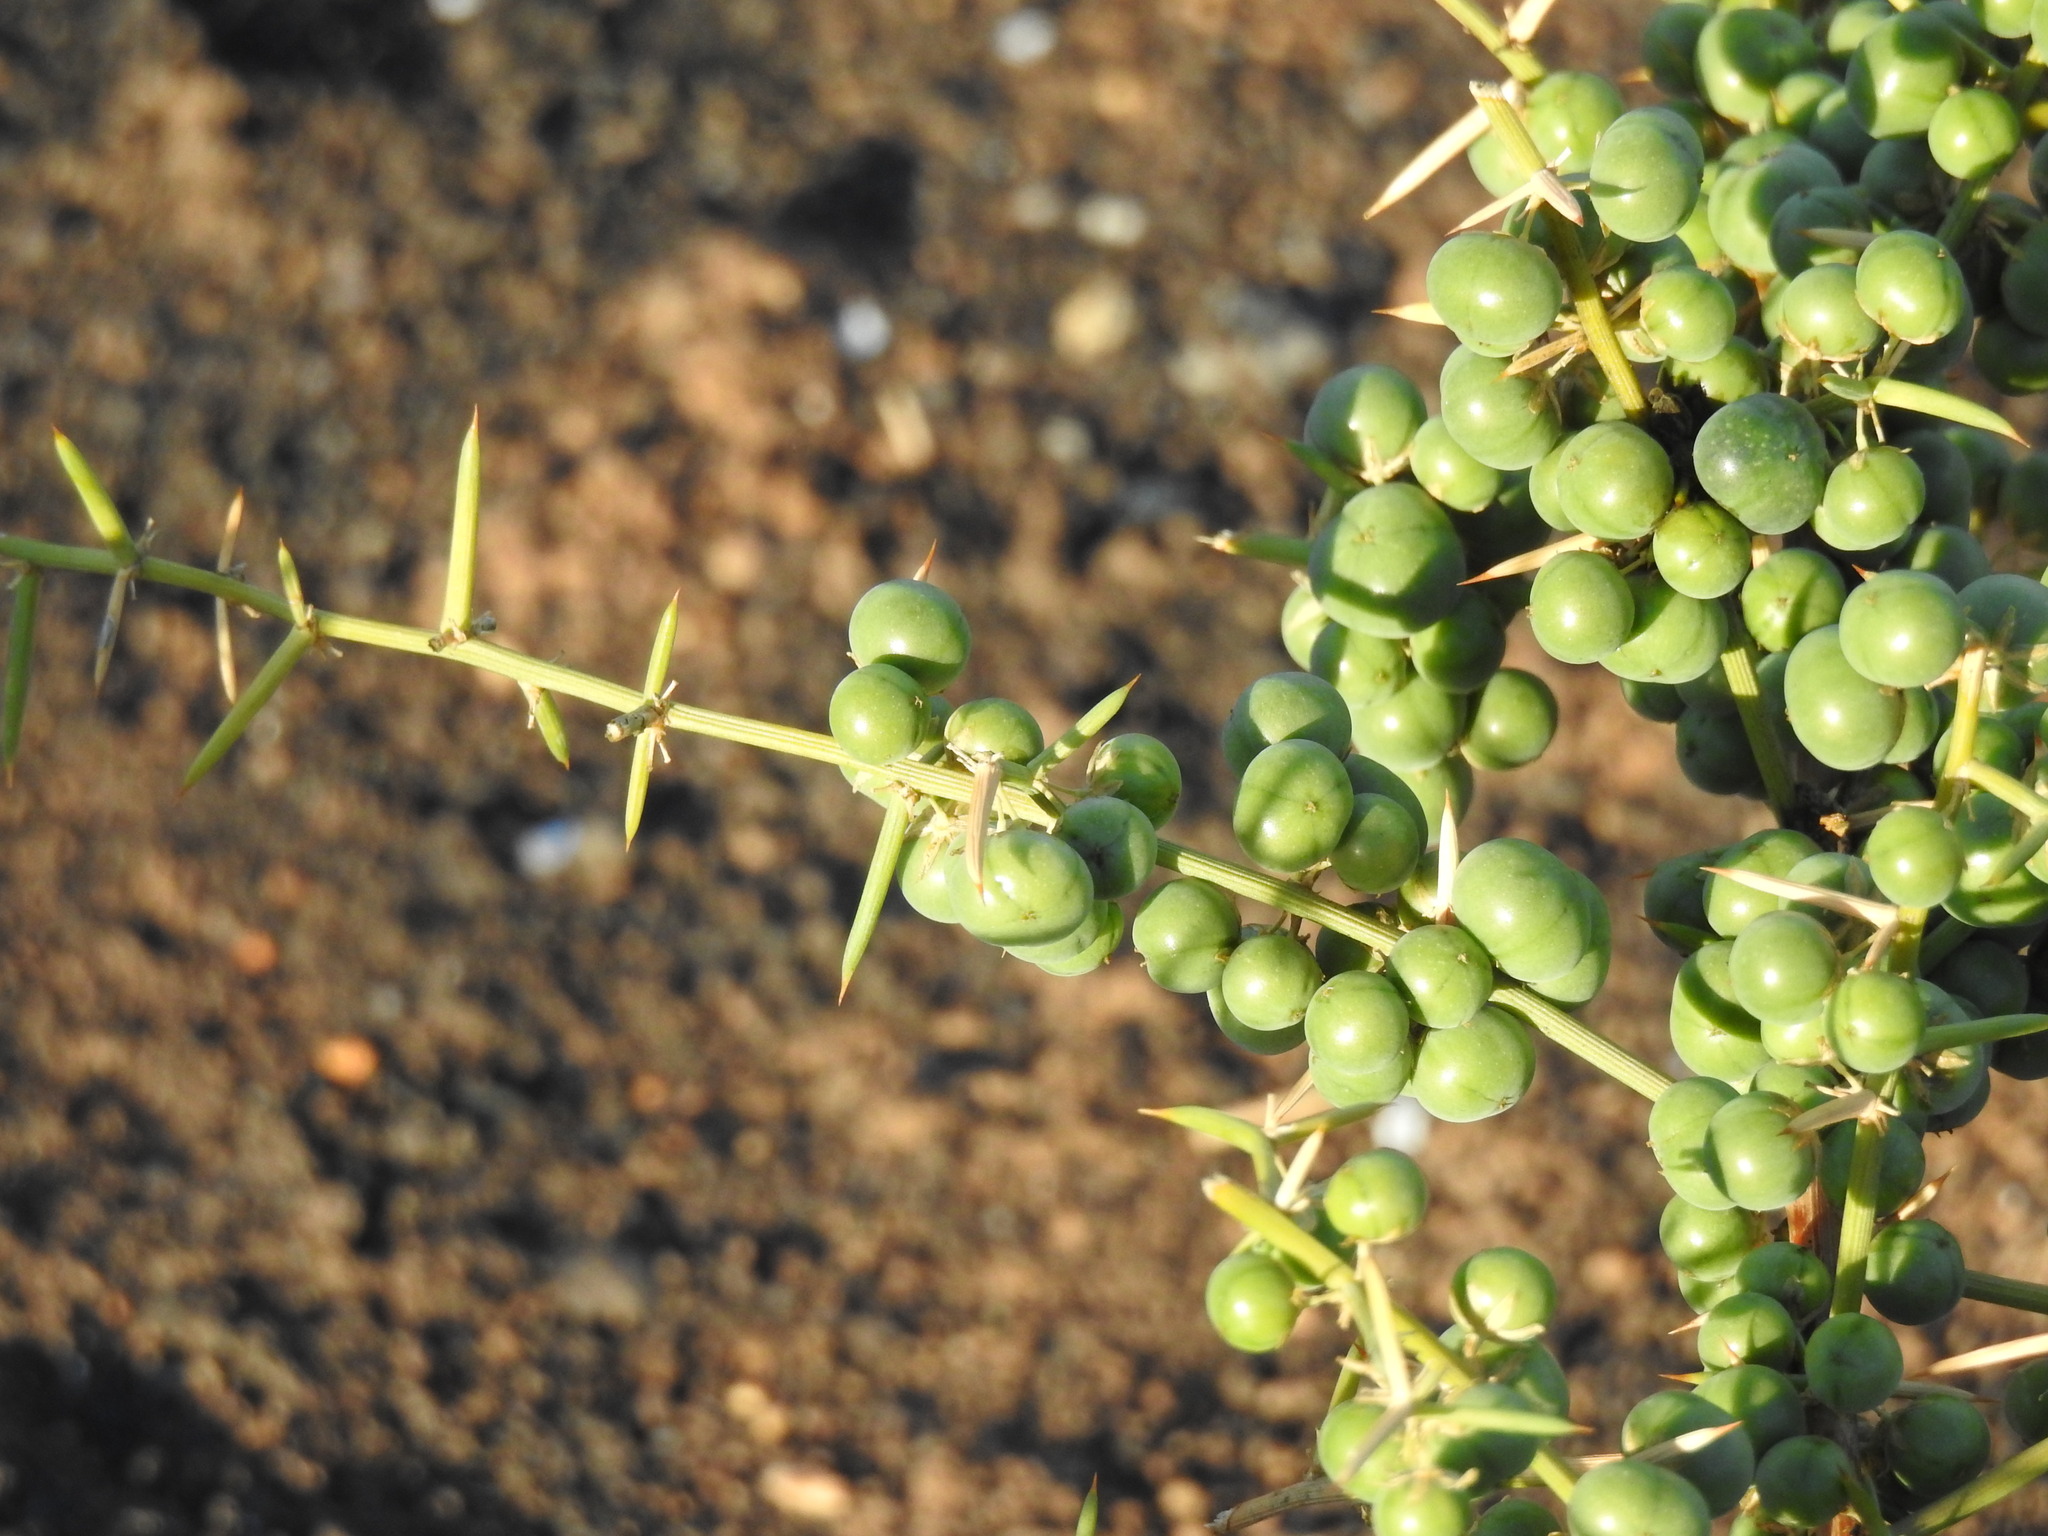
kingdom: Plantae
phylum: Tracheophyta
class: Liliopsida
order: Asparagales
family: Asparagaceae
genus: Asparagus
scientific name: Asparagus aphyllus
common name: Mediterranean asparagus
